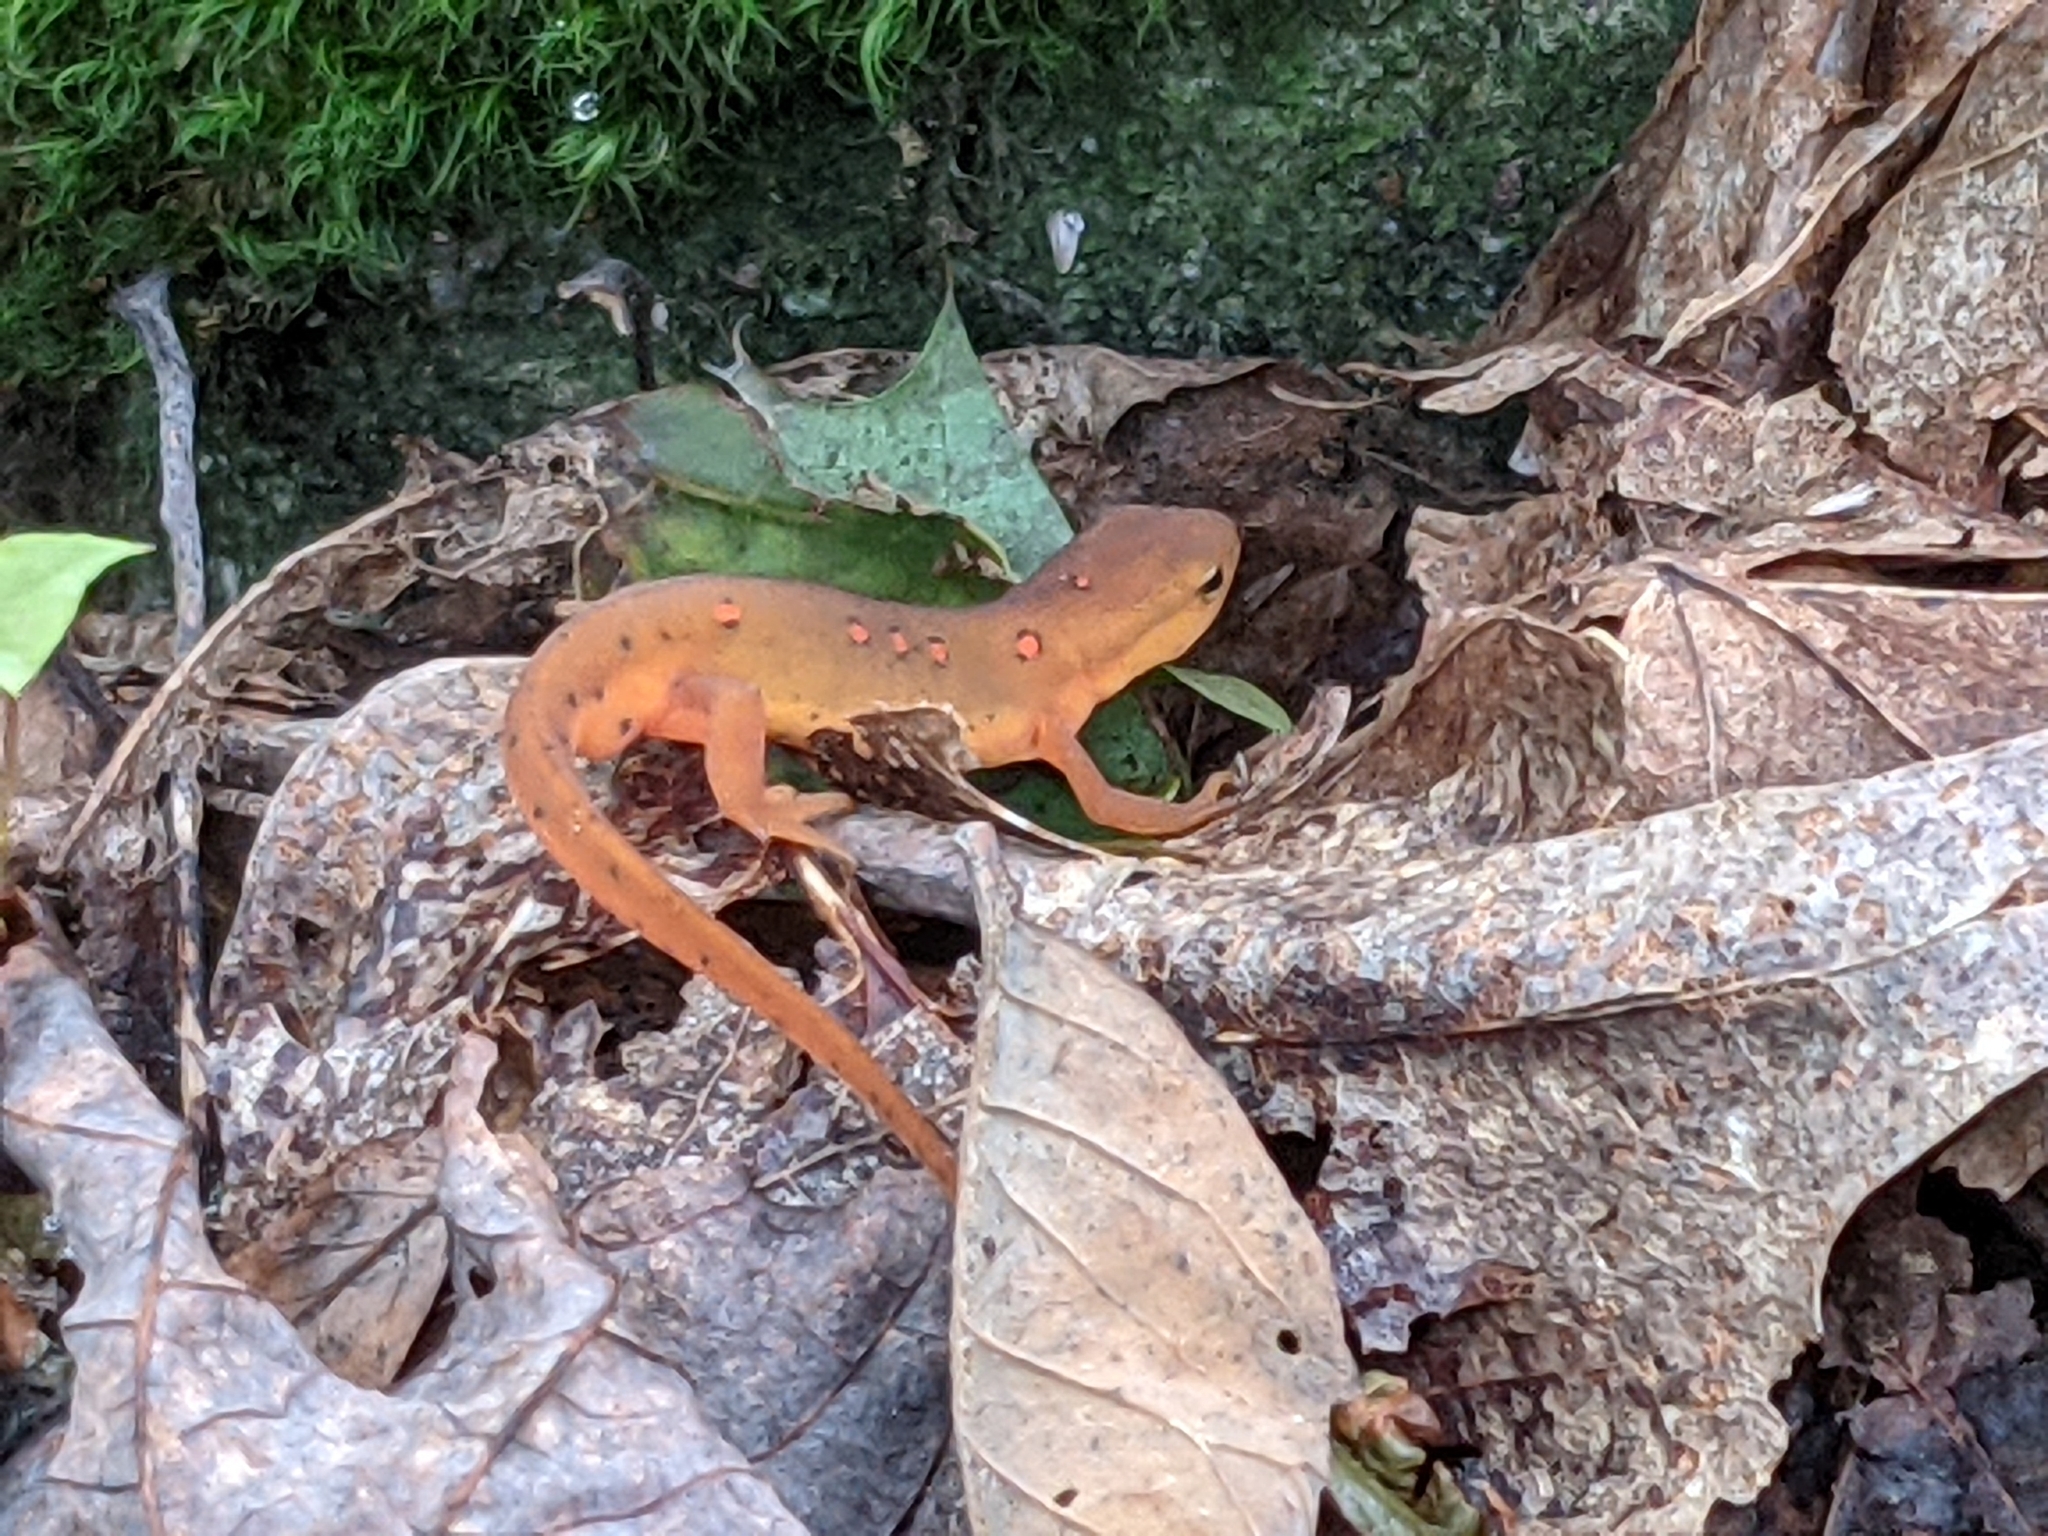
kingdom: Animalia
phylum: Chordata
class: Amphibia
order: Caudata
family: Salamandridae
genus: Notophthalmus
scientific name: Notophthalmus viridescens
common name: Eastern newt
